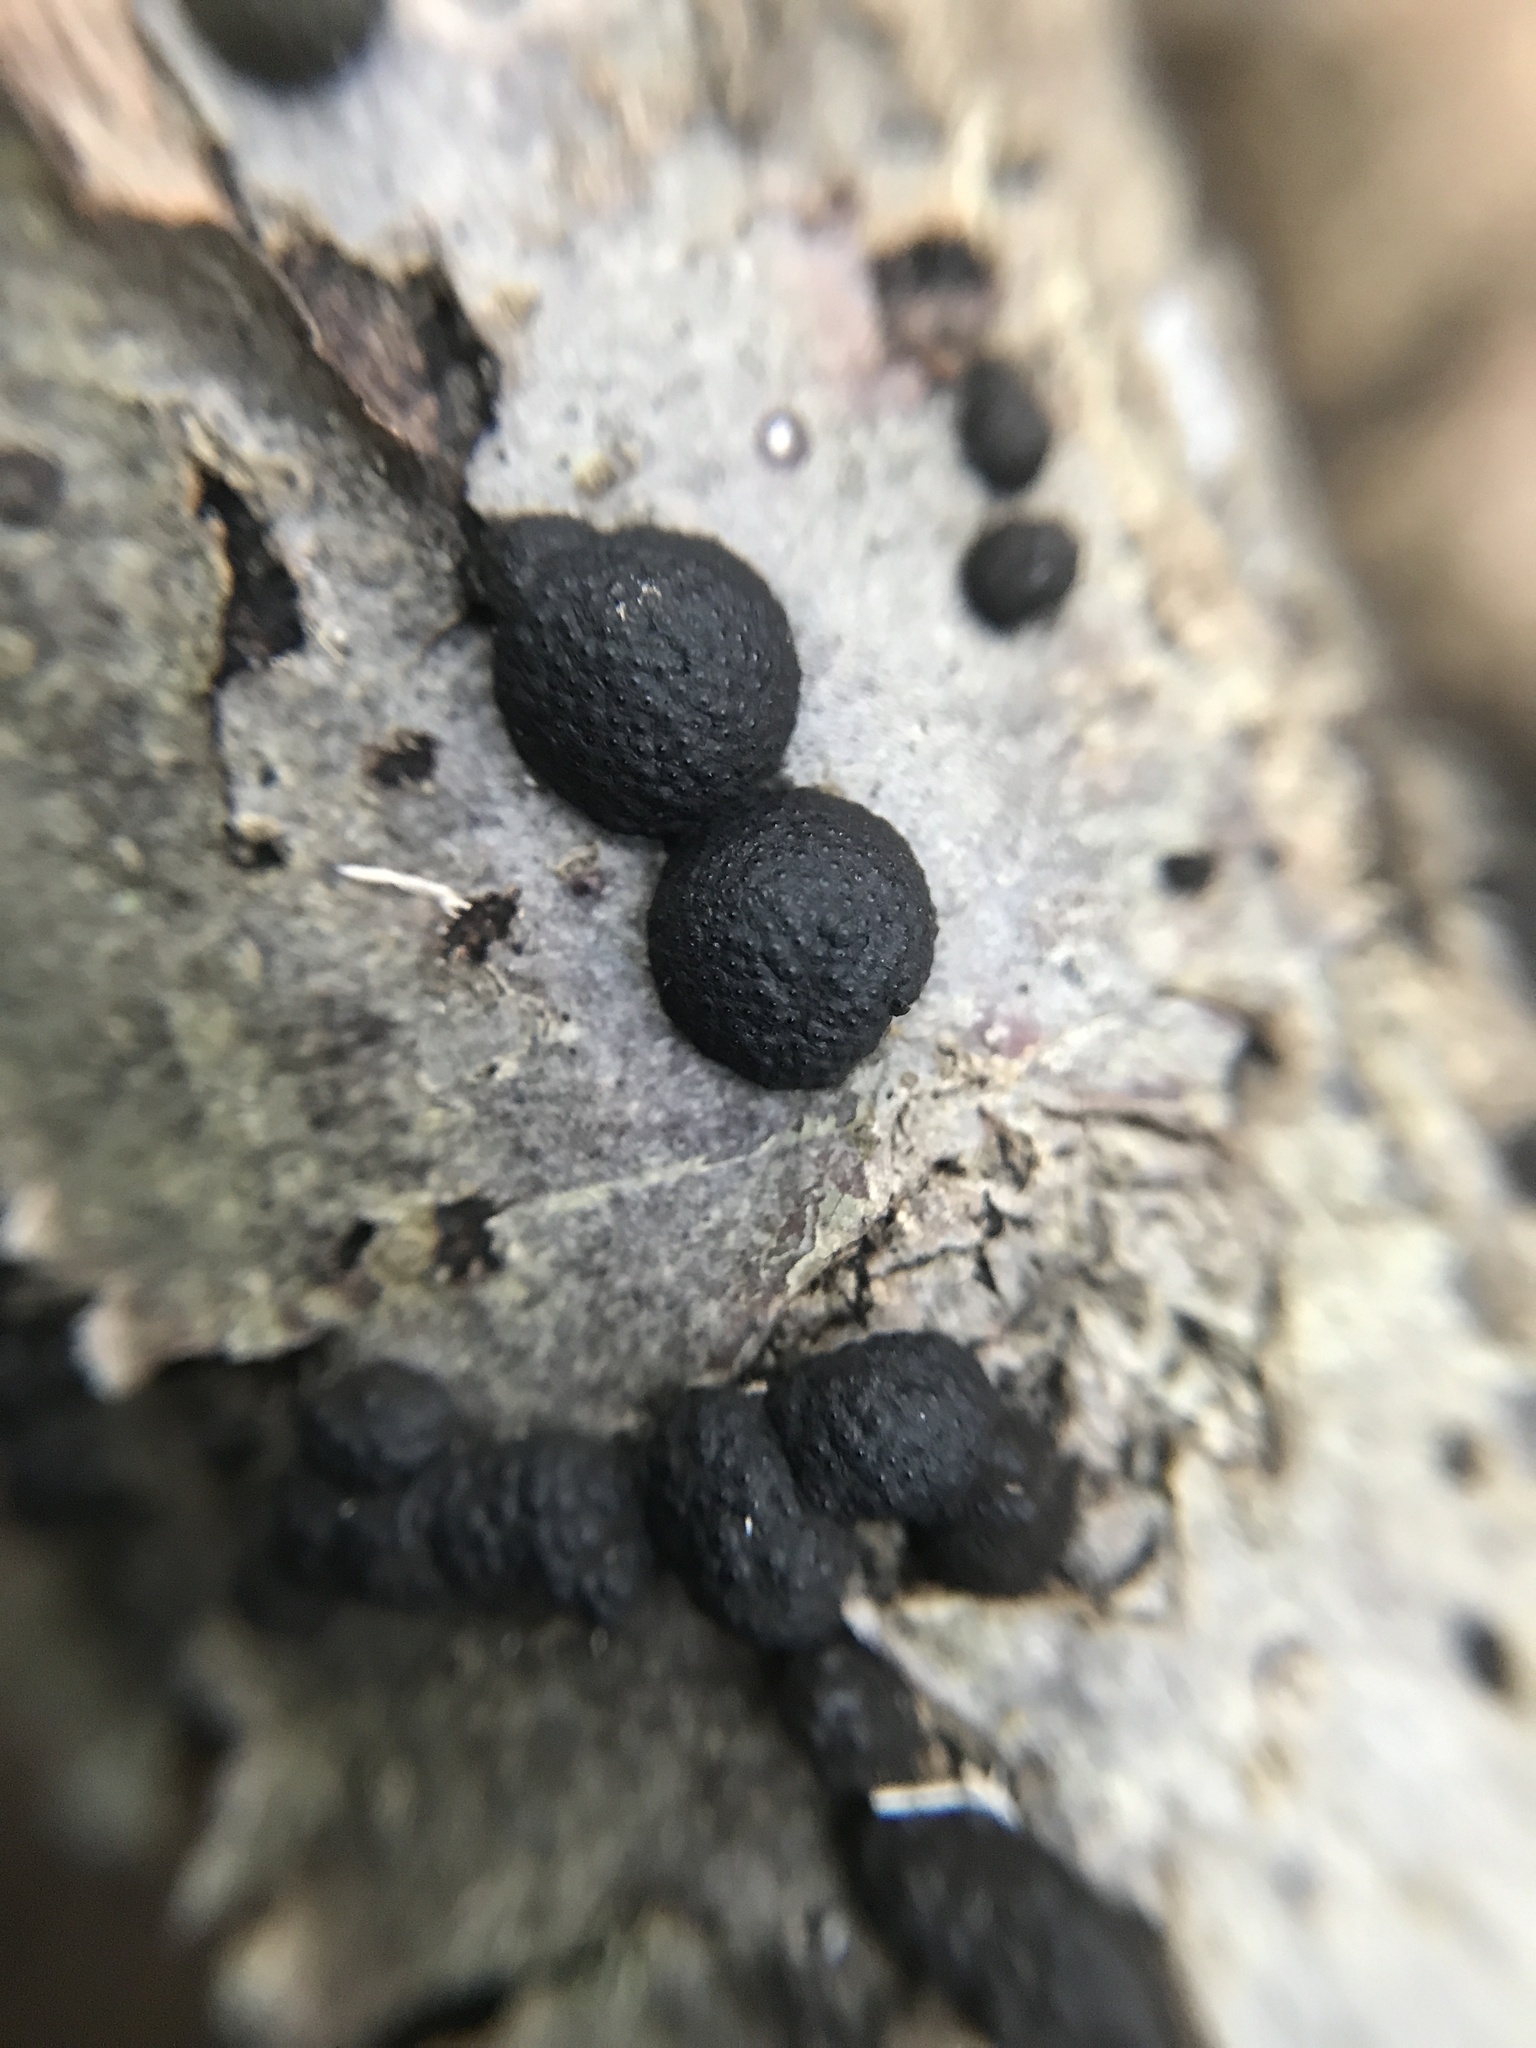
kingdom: Fungi
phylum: Ascomycota
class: Sordariomycetes
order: Xylariales
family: Hypoxylaceae
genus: Annulohypoxylon
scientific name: Annulohypoxylon annulatum
